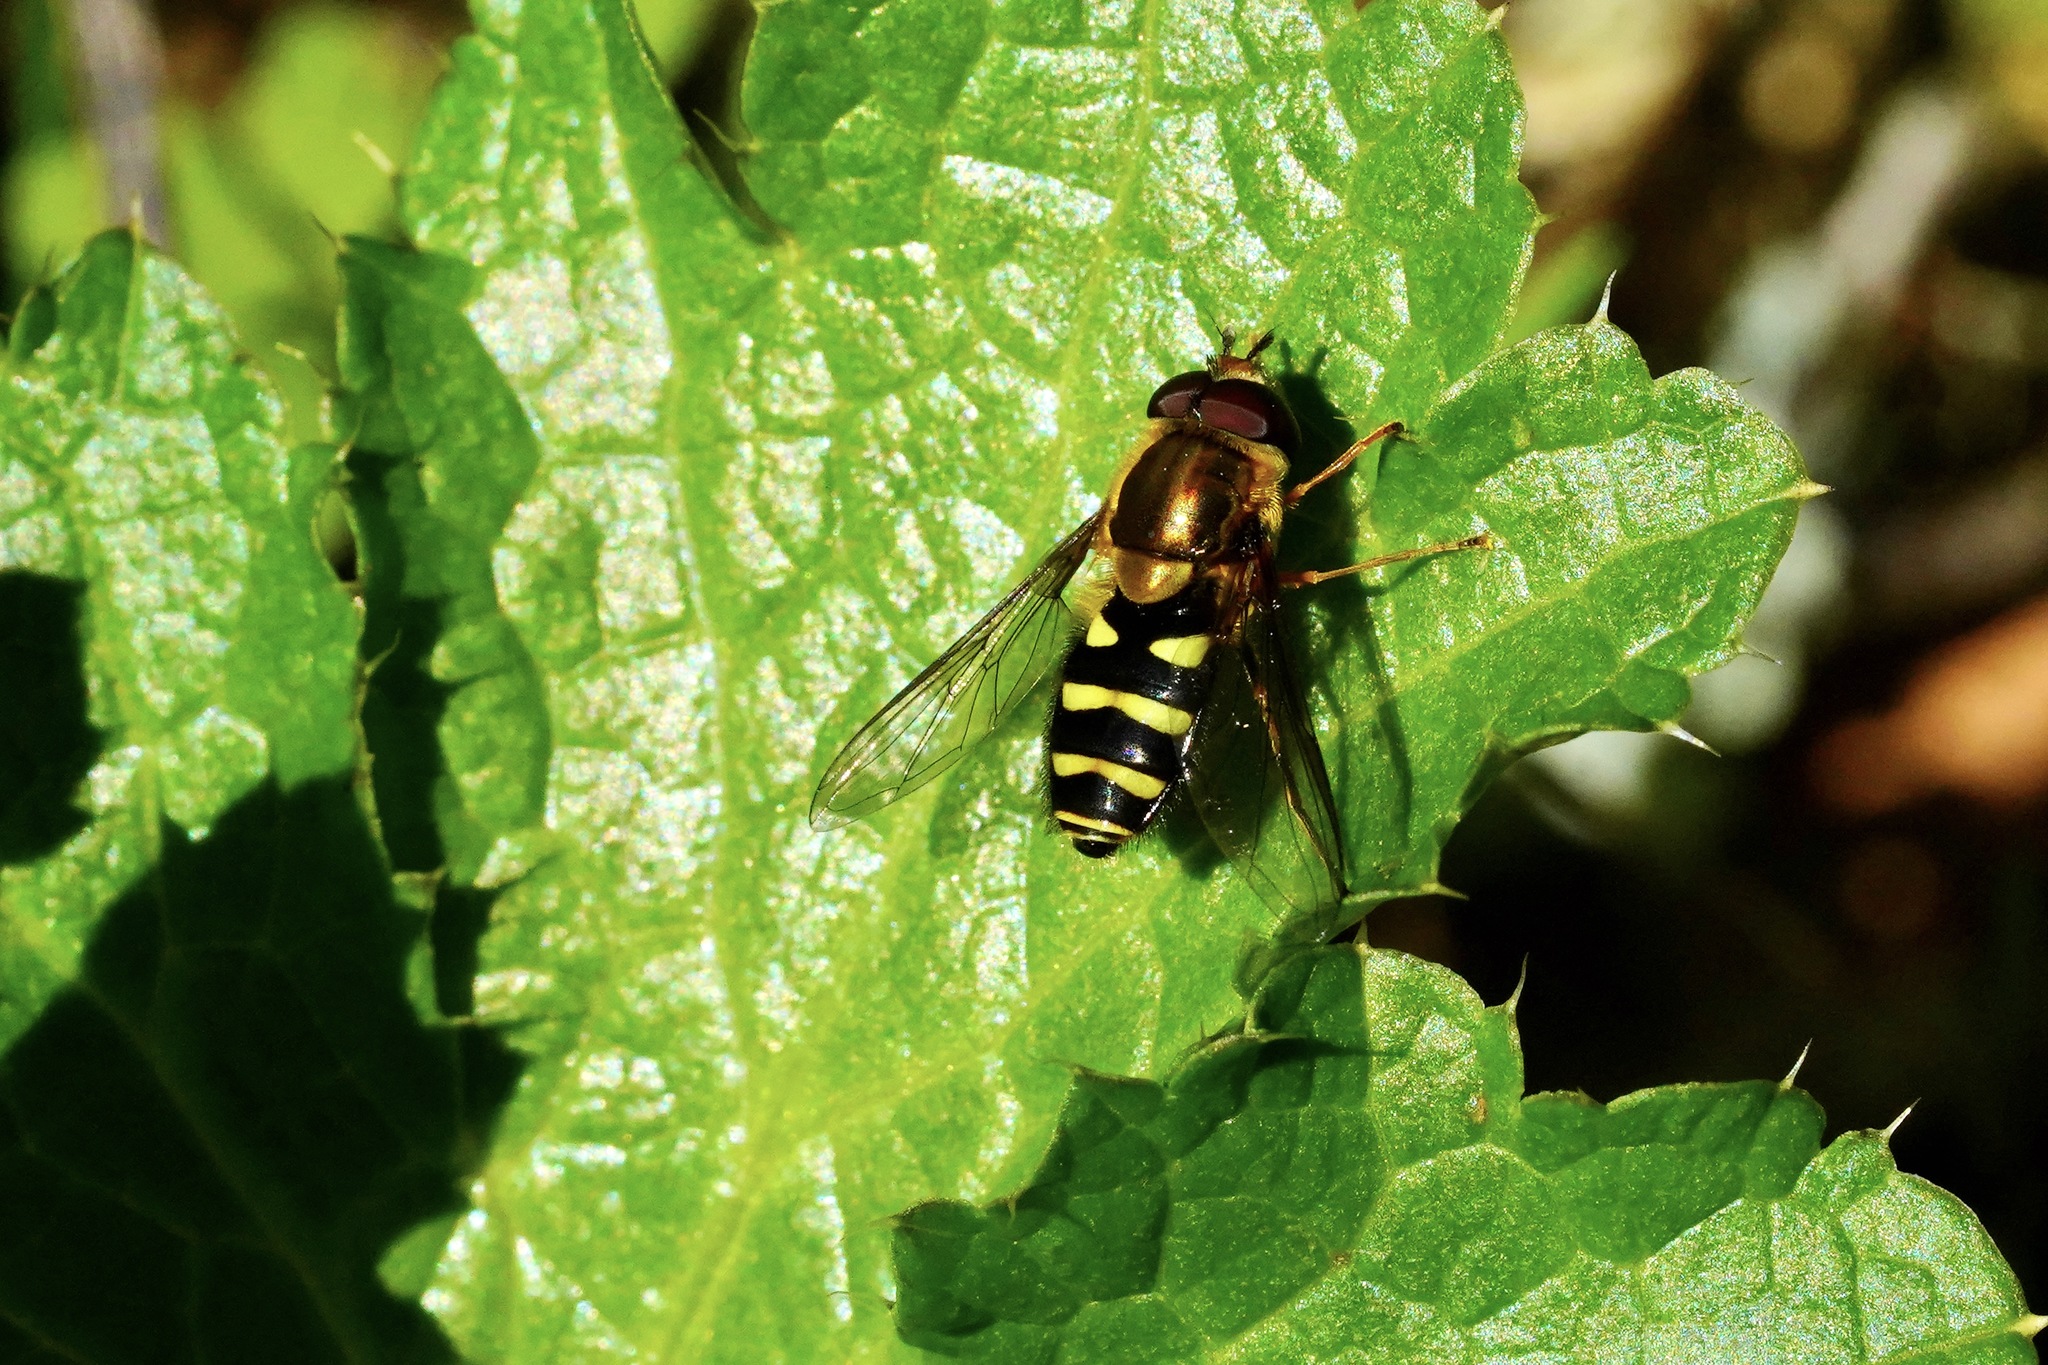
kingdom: Animalia
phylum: Arthropoda
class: Insecta
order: Diptera
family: Syrphidae
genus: Syrphus
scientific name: Syrphus opinator
